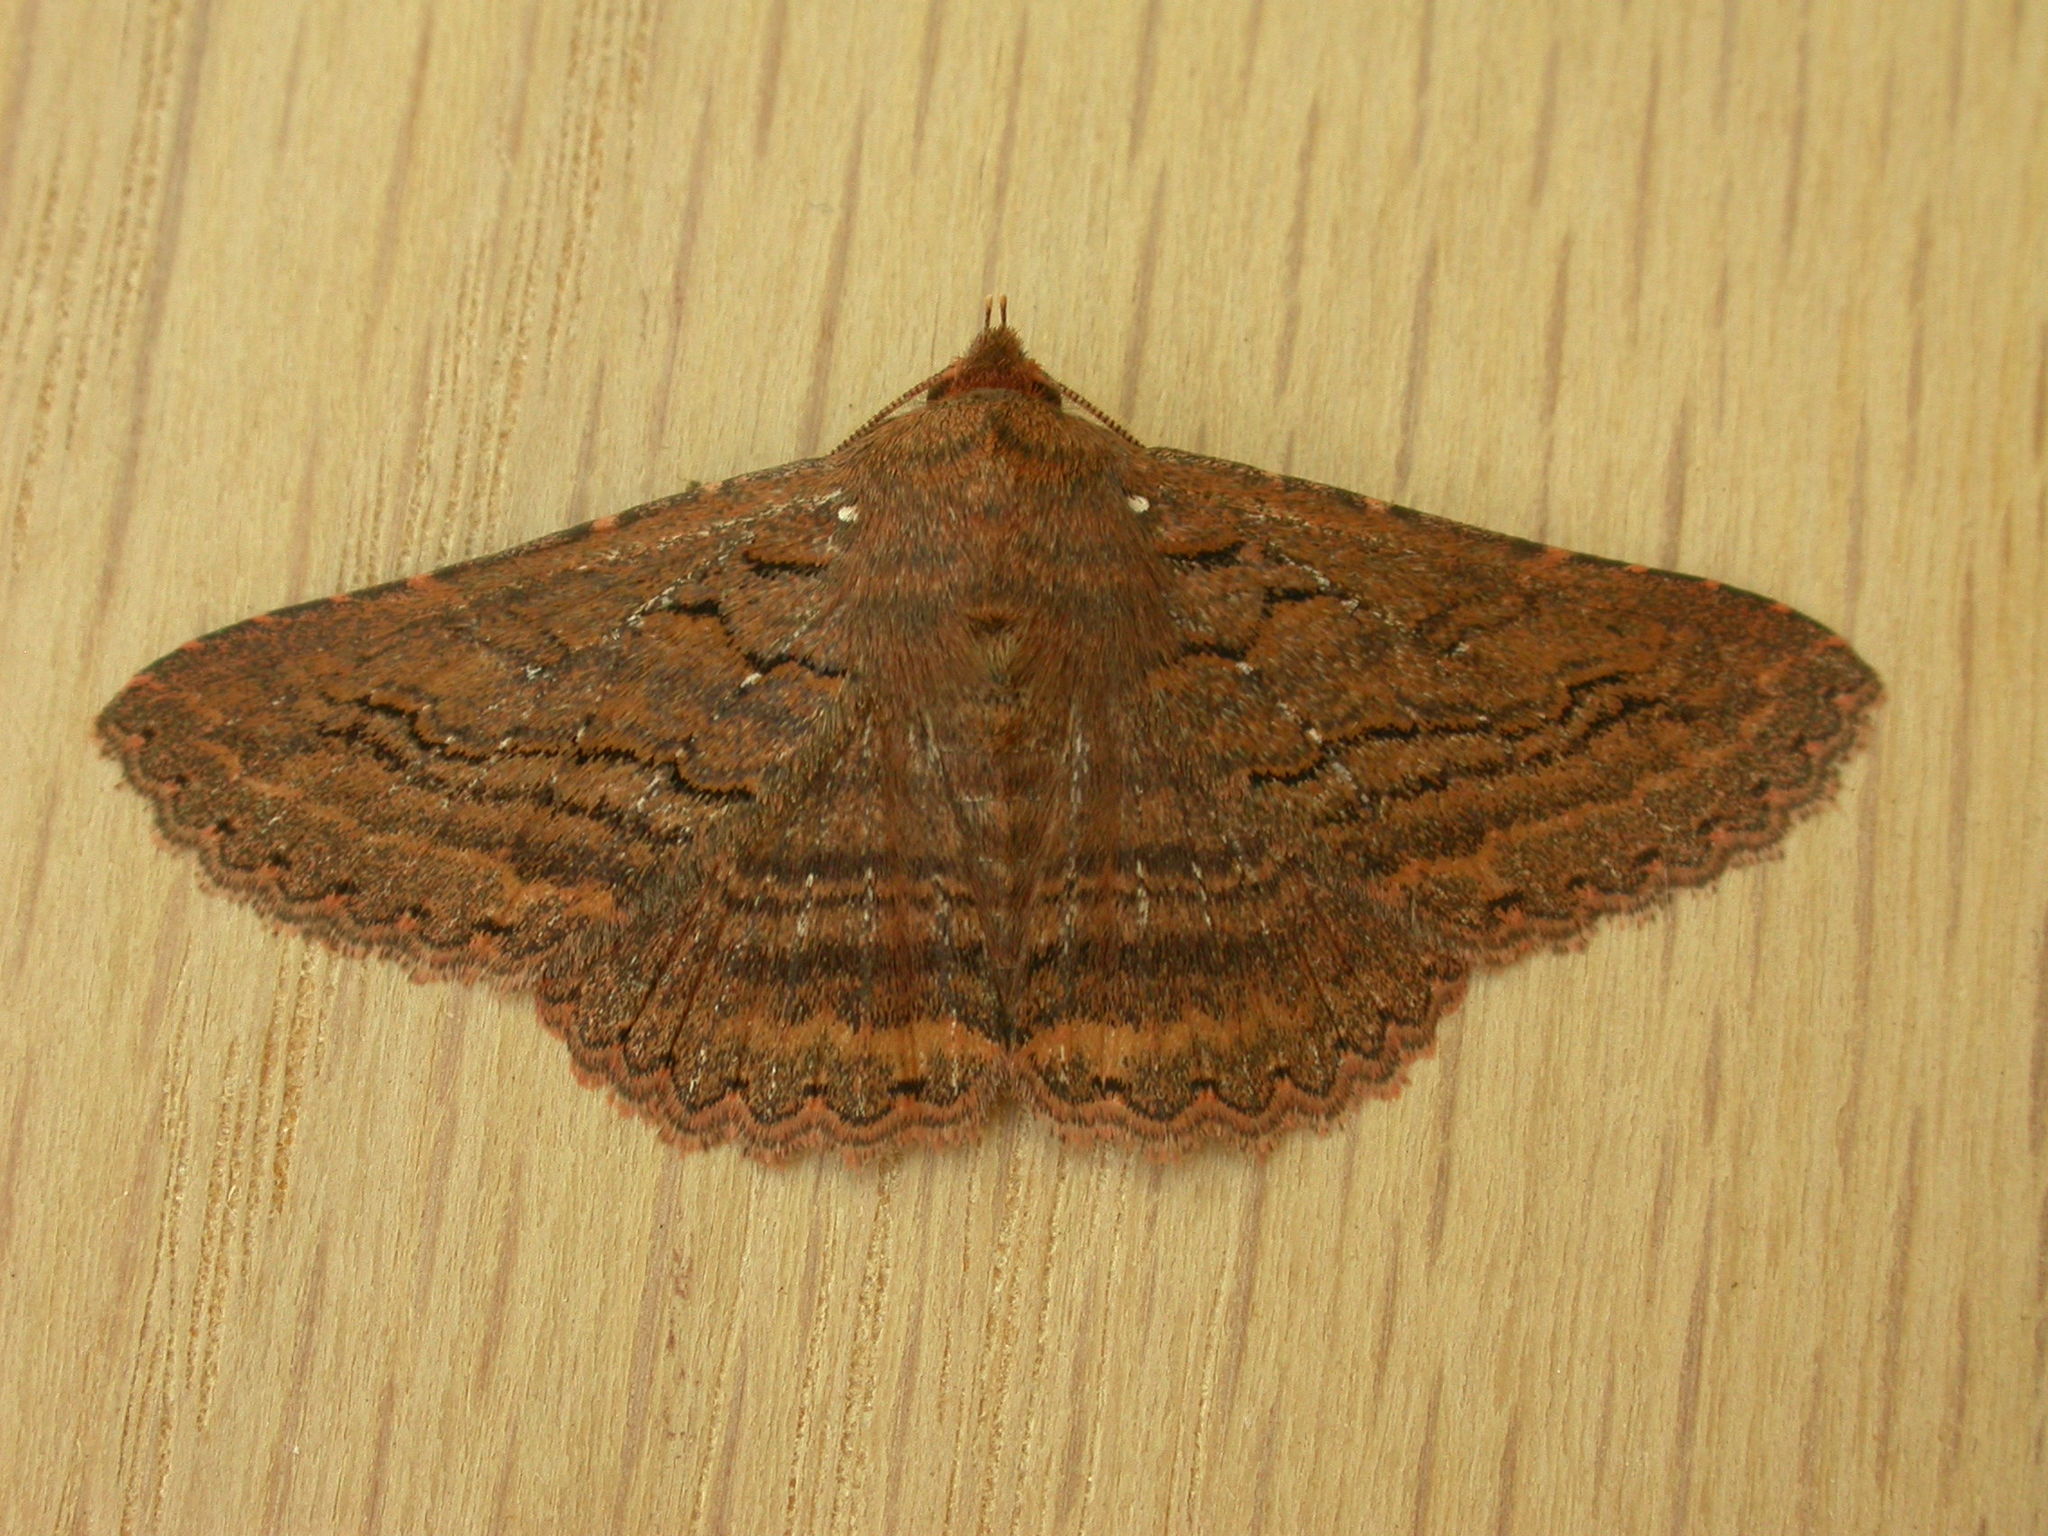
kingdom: Animalia
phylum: Arthropoda
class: Insecta
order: Lepidoptera
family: Erebidae
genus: Praxis
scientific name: Praxis porphyretica
